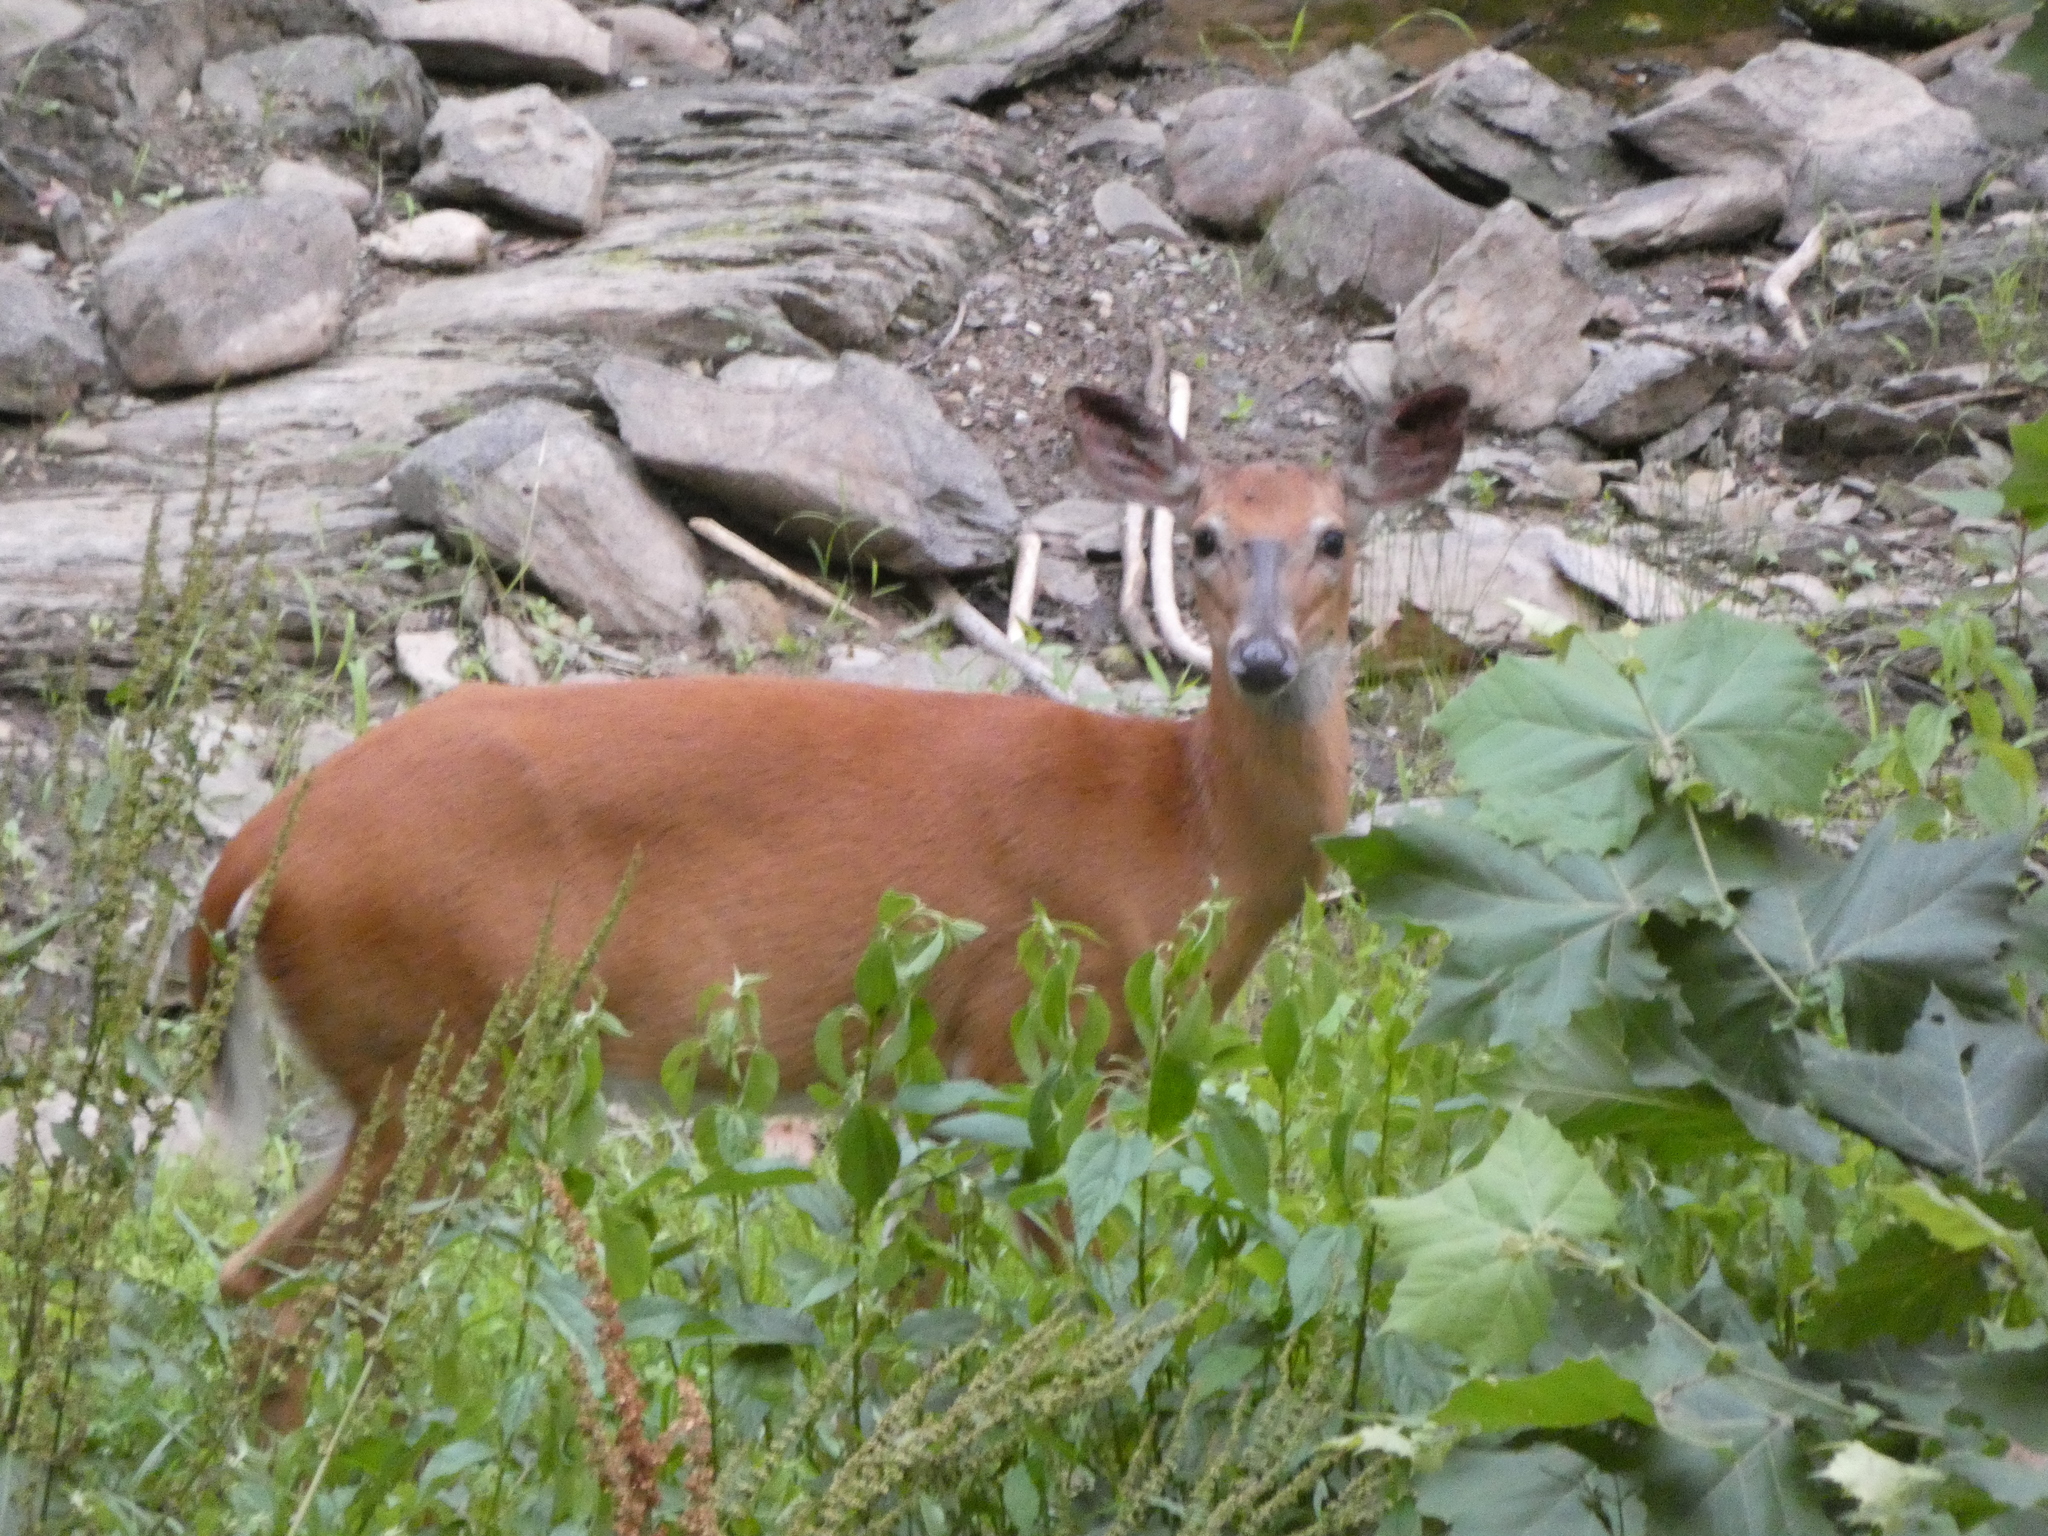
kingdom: Animalia
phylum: Chordata
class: Mammalia
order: Artiodactyla
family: Cervidae
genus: Odocoileus
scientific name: Odocoileus virginianus
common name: White-tailed deer
